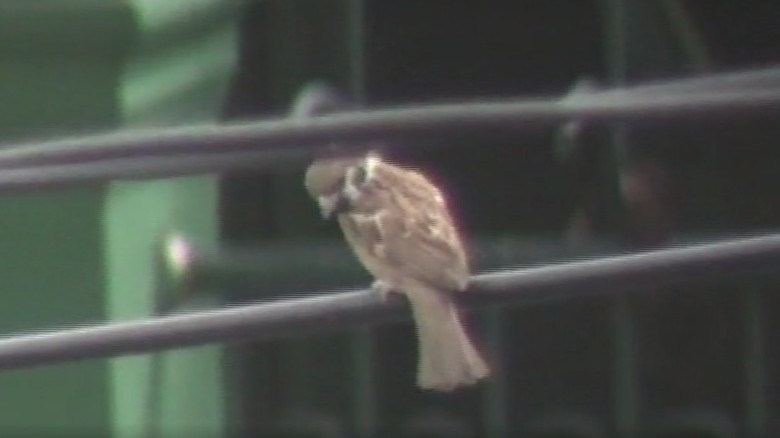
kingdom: Animalia
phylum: Chordata
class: Aves
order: Passeriformes
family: Passeridae
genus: Passer
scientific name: Passer montanus
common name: Eurasian tree sparrow
